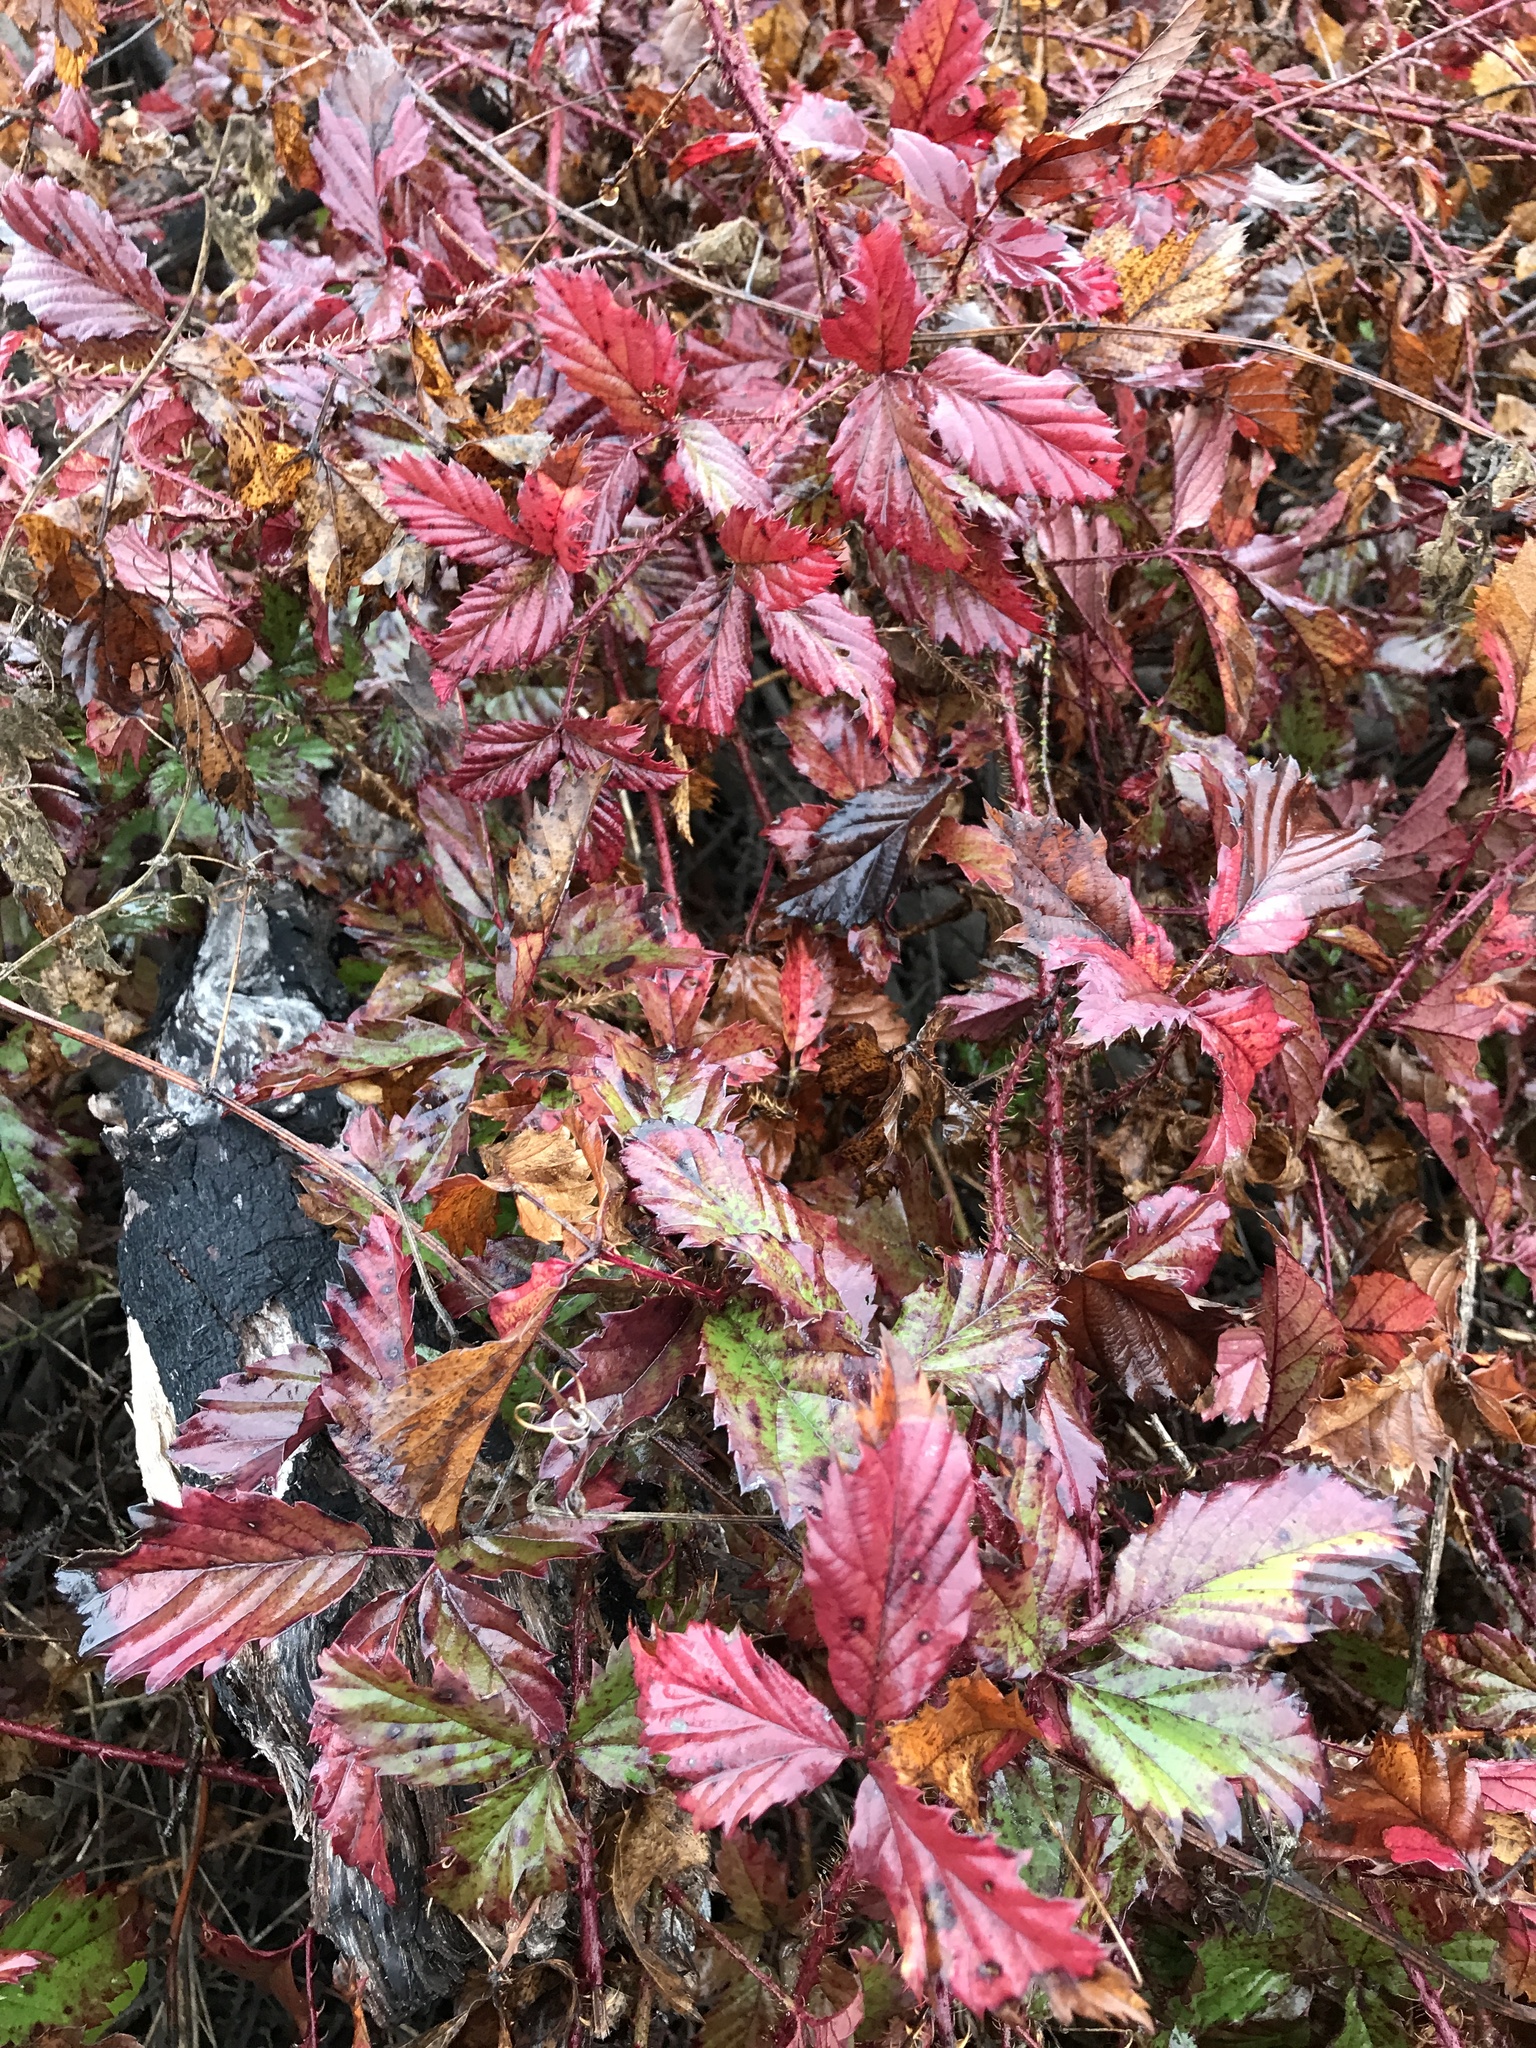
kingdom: Plantae
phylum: Tracheophyta
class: Magnoliopsida
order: Rosales
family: Rosaceae
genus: Rubus
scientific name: Rubus trivialis
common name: Southern dewberry
